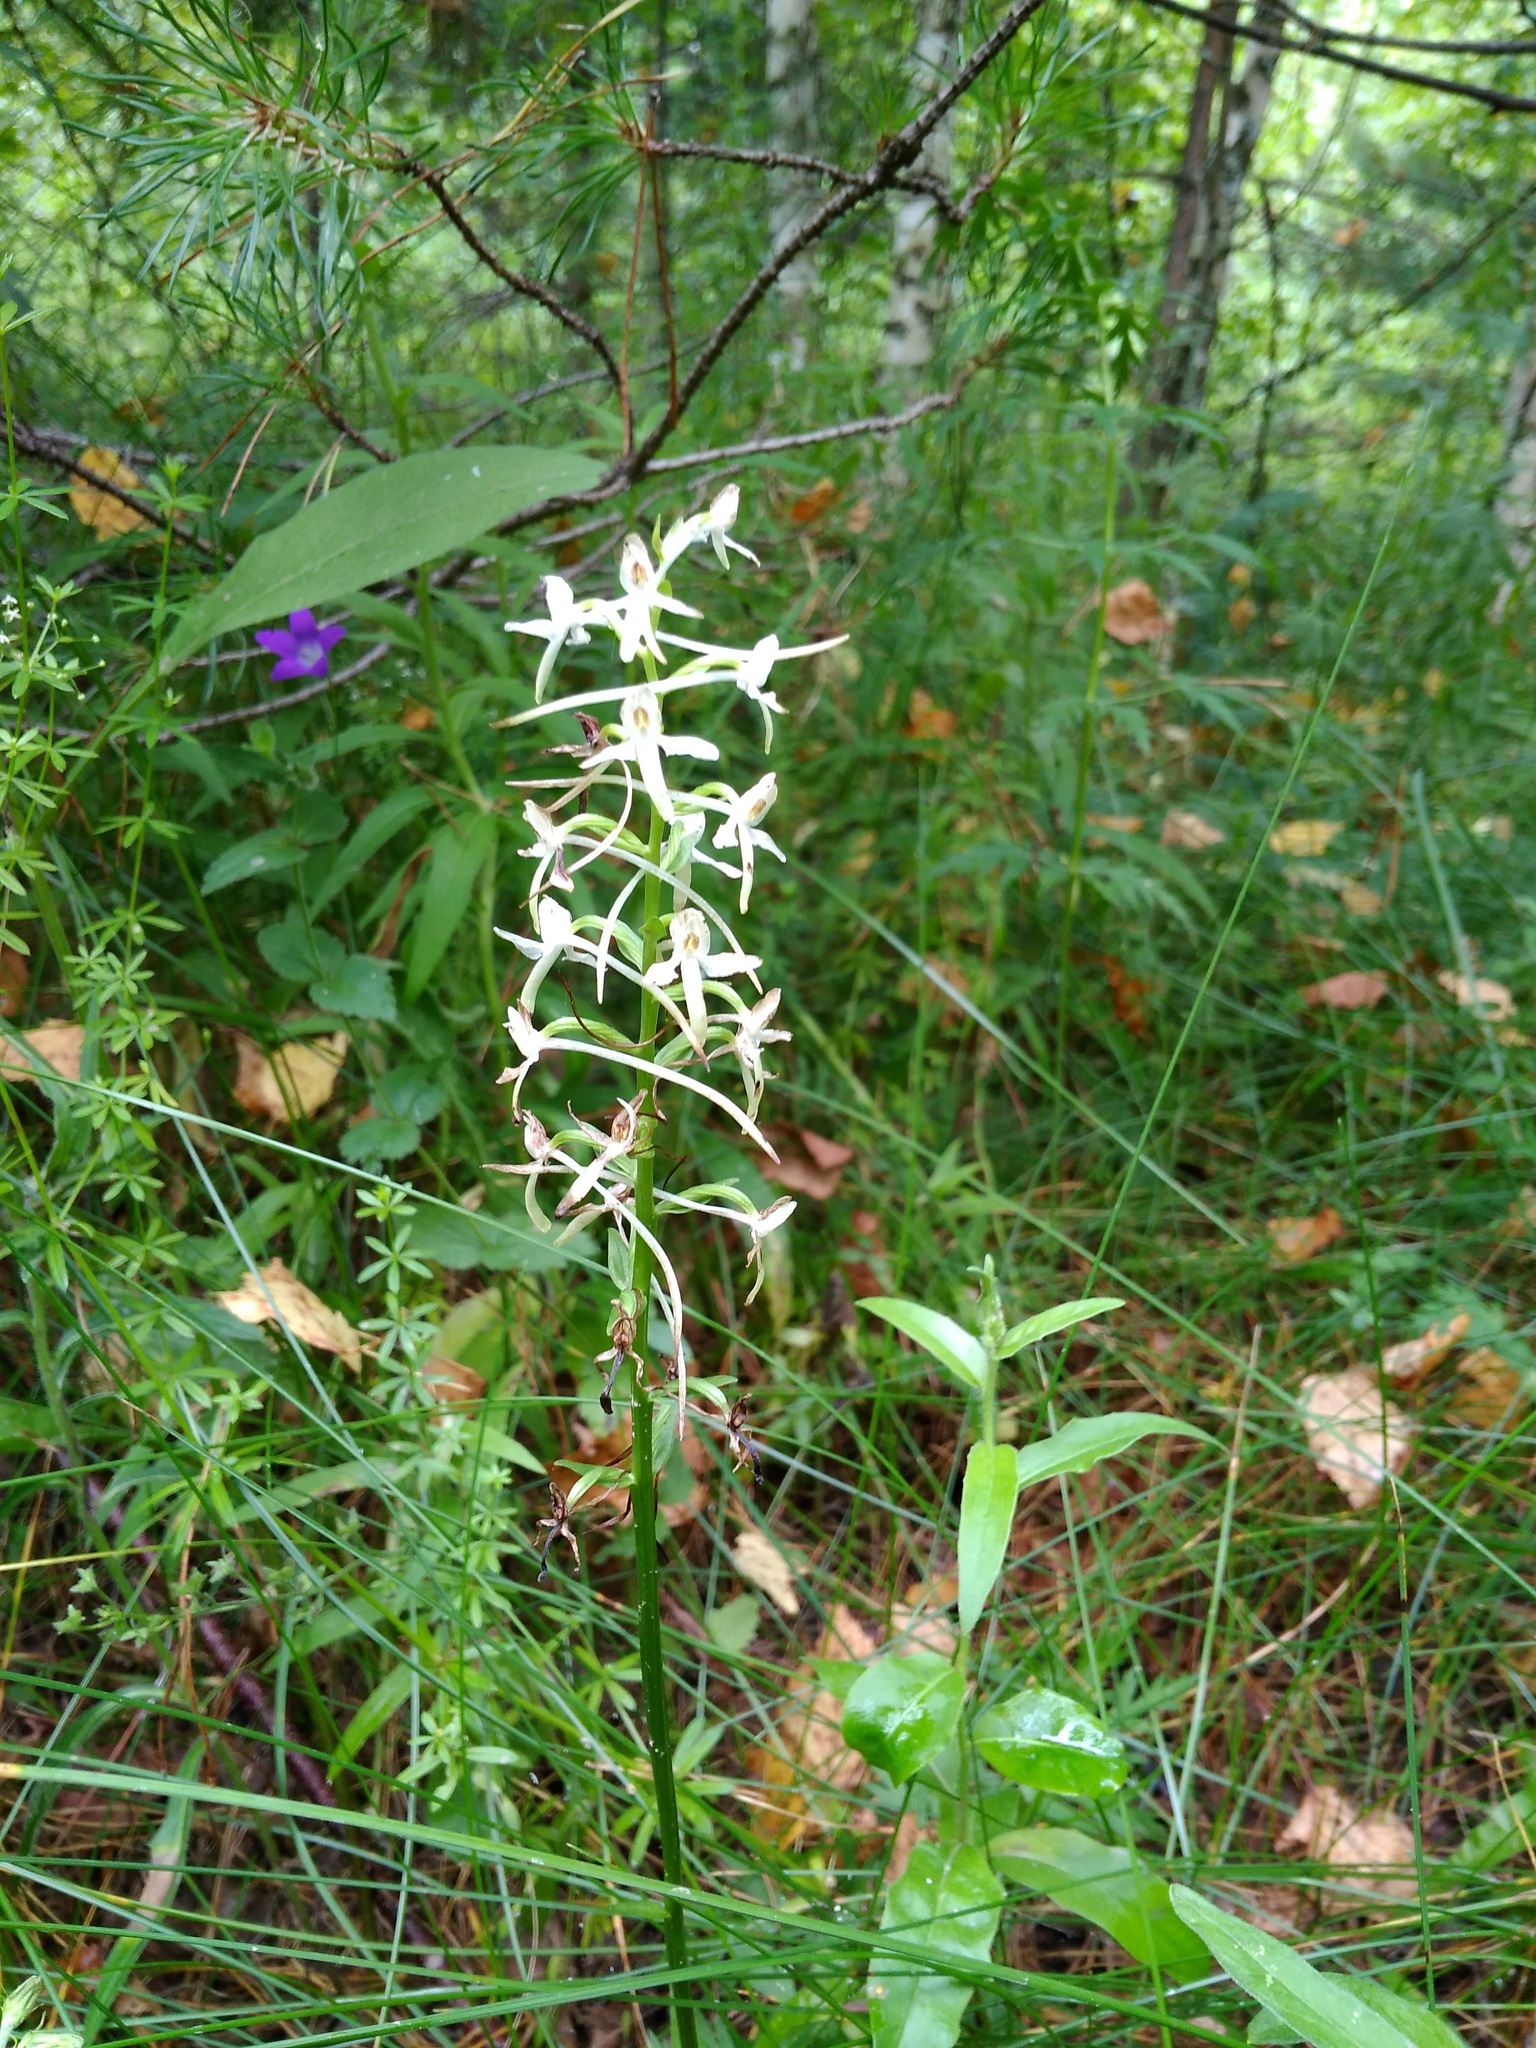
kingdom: Plantae
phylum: Tracheophyta
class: Liliopsida
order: Asparagales
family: Orchidaceae
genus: Platanthera
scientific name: Platanthera bifolia
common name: Lesser butterfly-orchid
